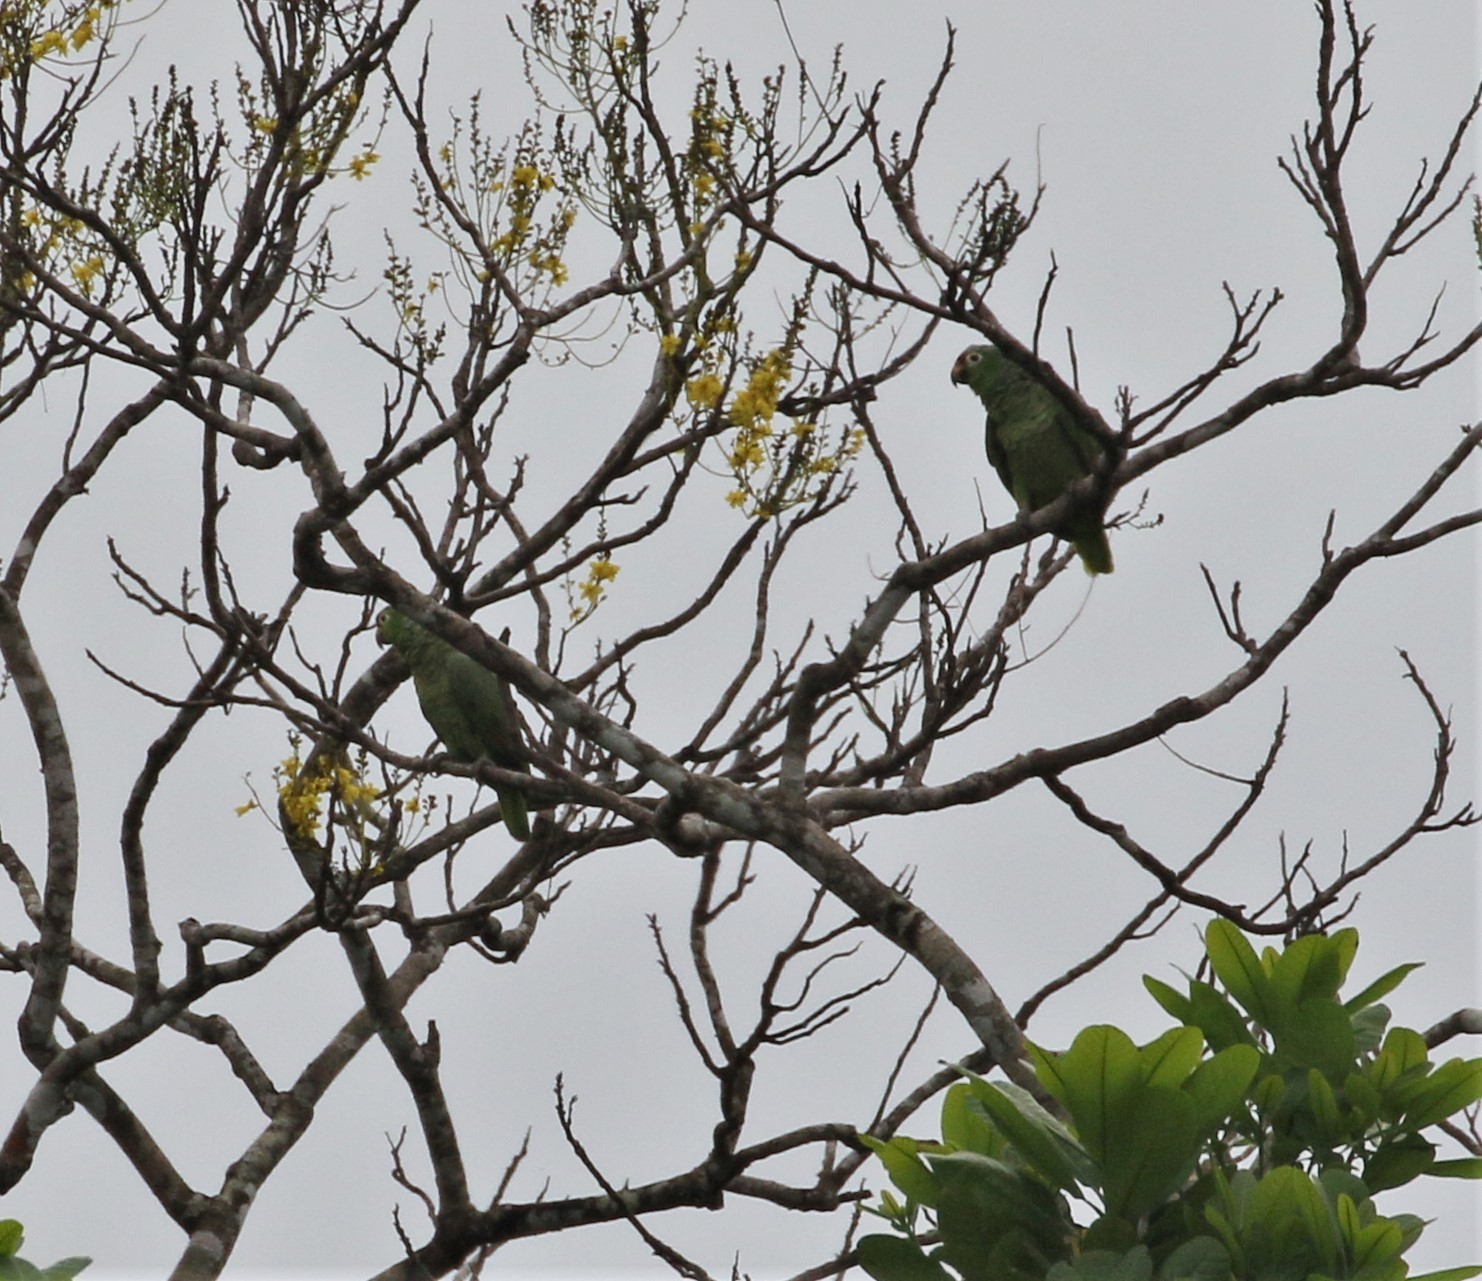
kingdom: Animalia
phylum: Chordata
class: Aves
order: Psittaciformes
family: Psittacidae
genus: Amazona
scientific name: Amazona autumnalis
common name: Red-lored amazon
